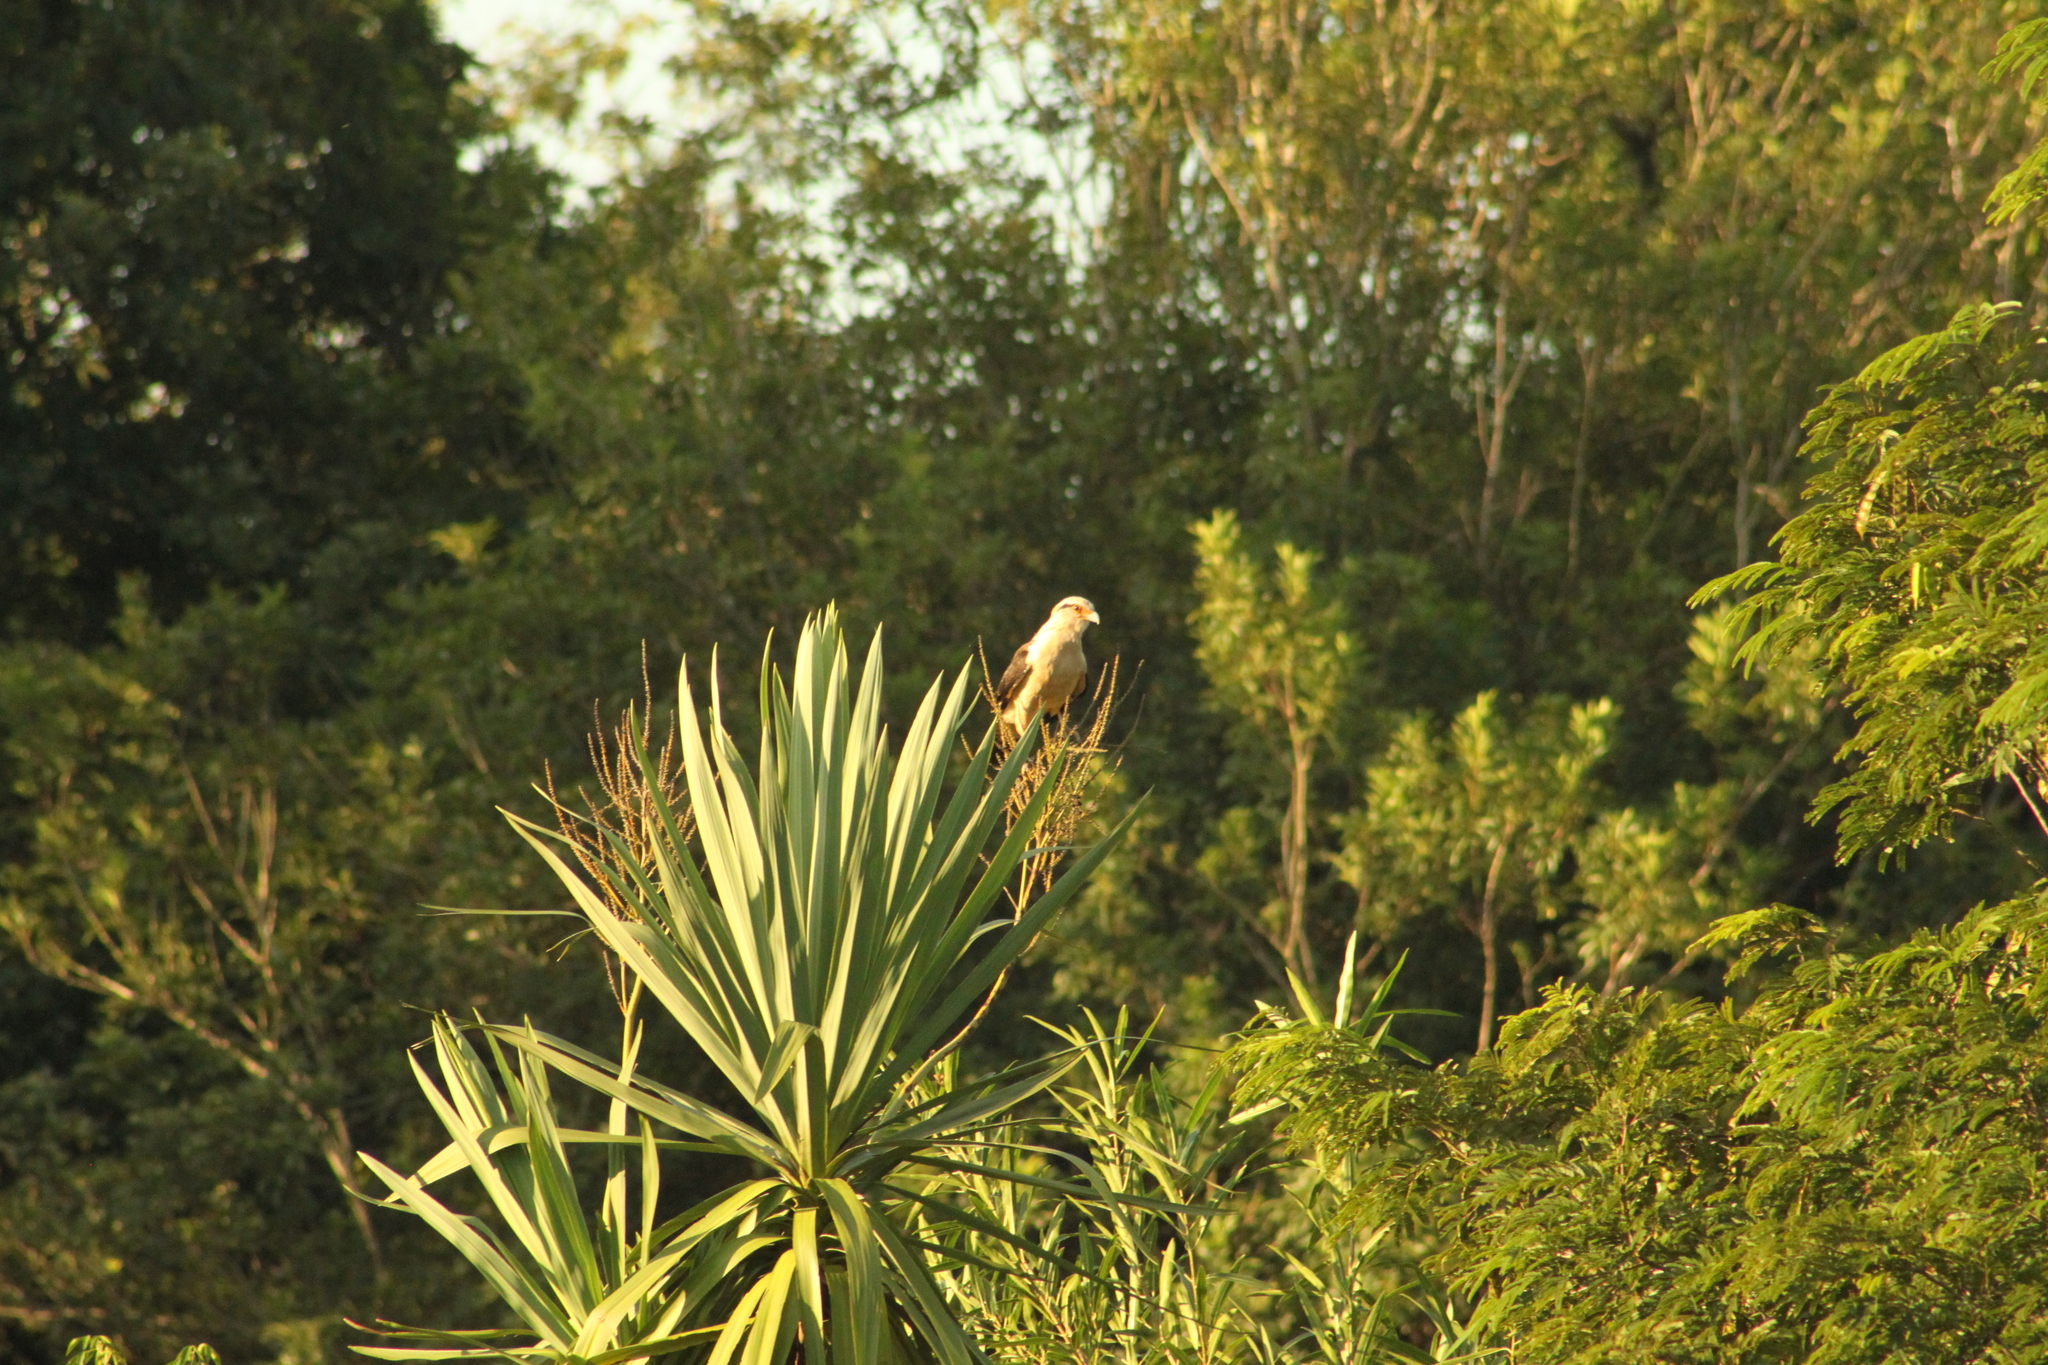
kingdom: Animalia
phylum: Chordata
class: Aves
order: Falconiformes
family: Falconidae
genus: Daptrius
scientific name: Daptrius
